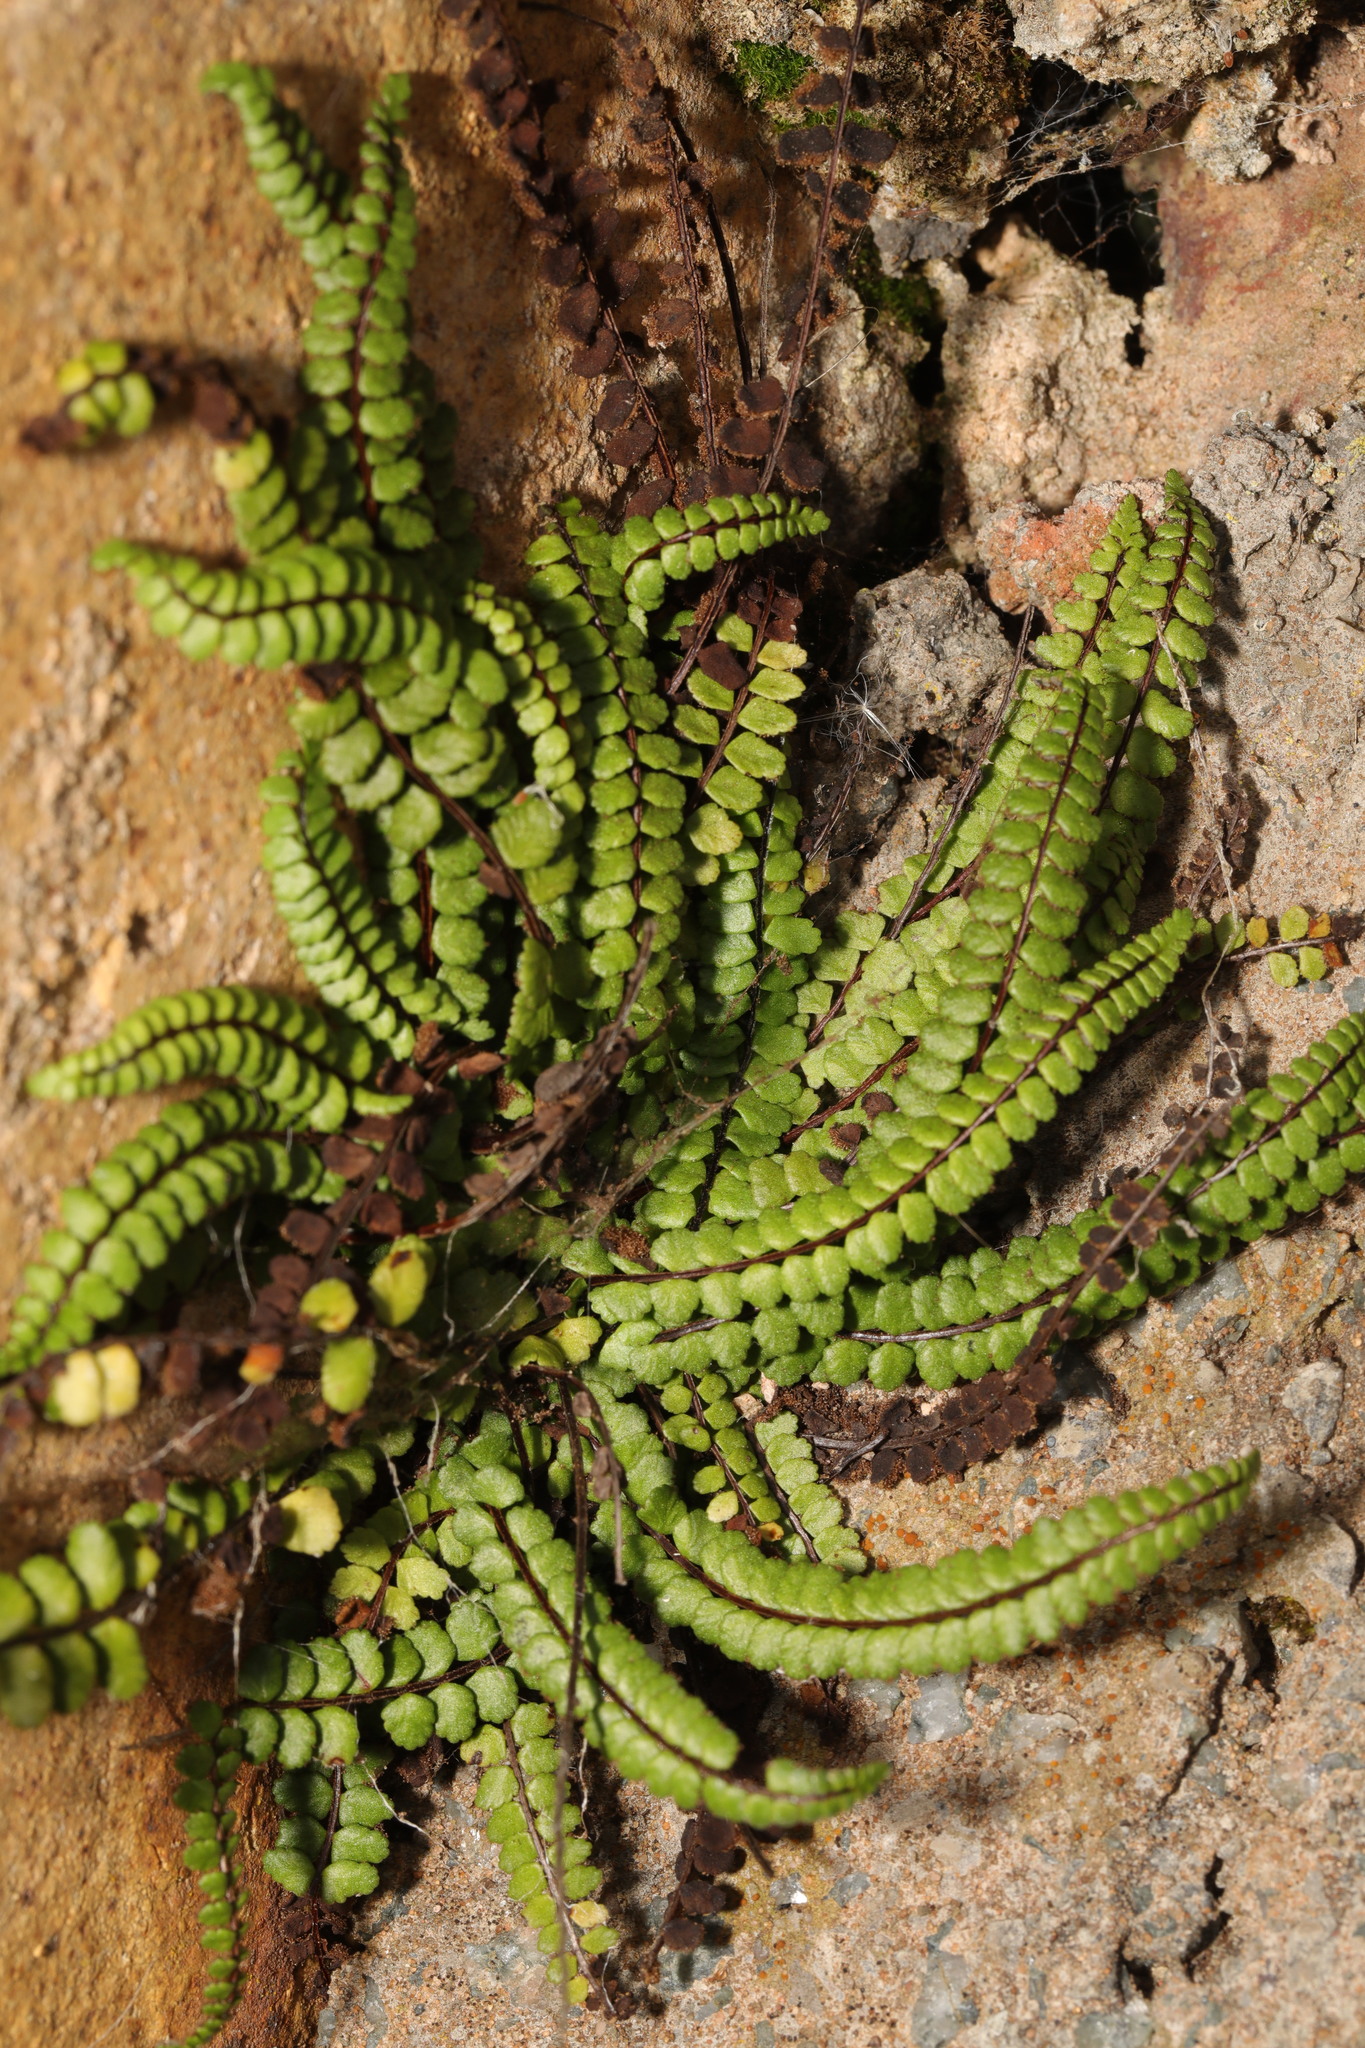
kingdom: Plantae
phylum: Tracheophyta
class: Polypodiopsida
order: Polypodiales
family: Aspleniaceae
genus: Asplenium
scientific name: Asplenium trichomanes
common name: Maidenhair spleenwort
